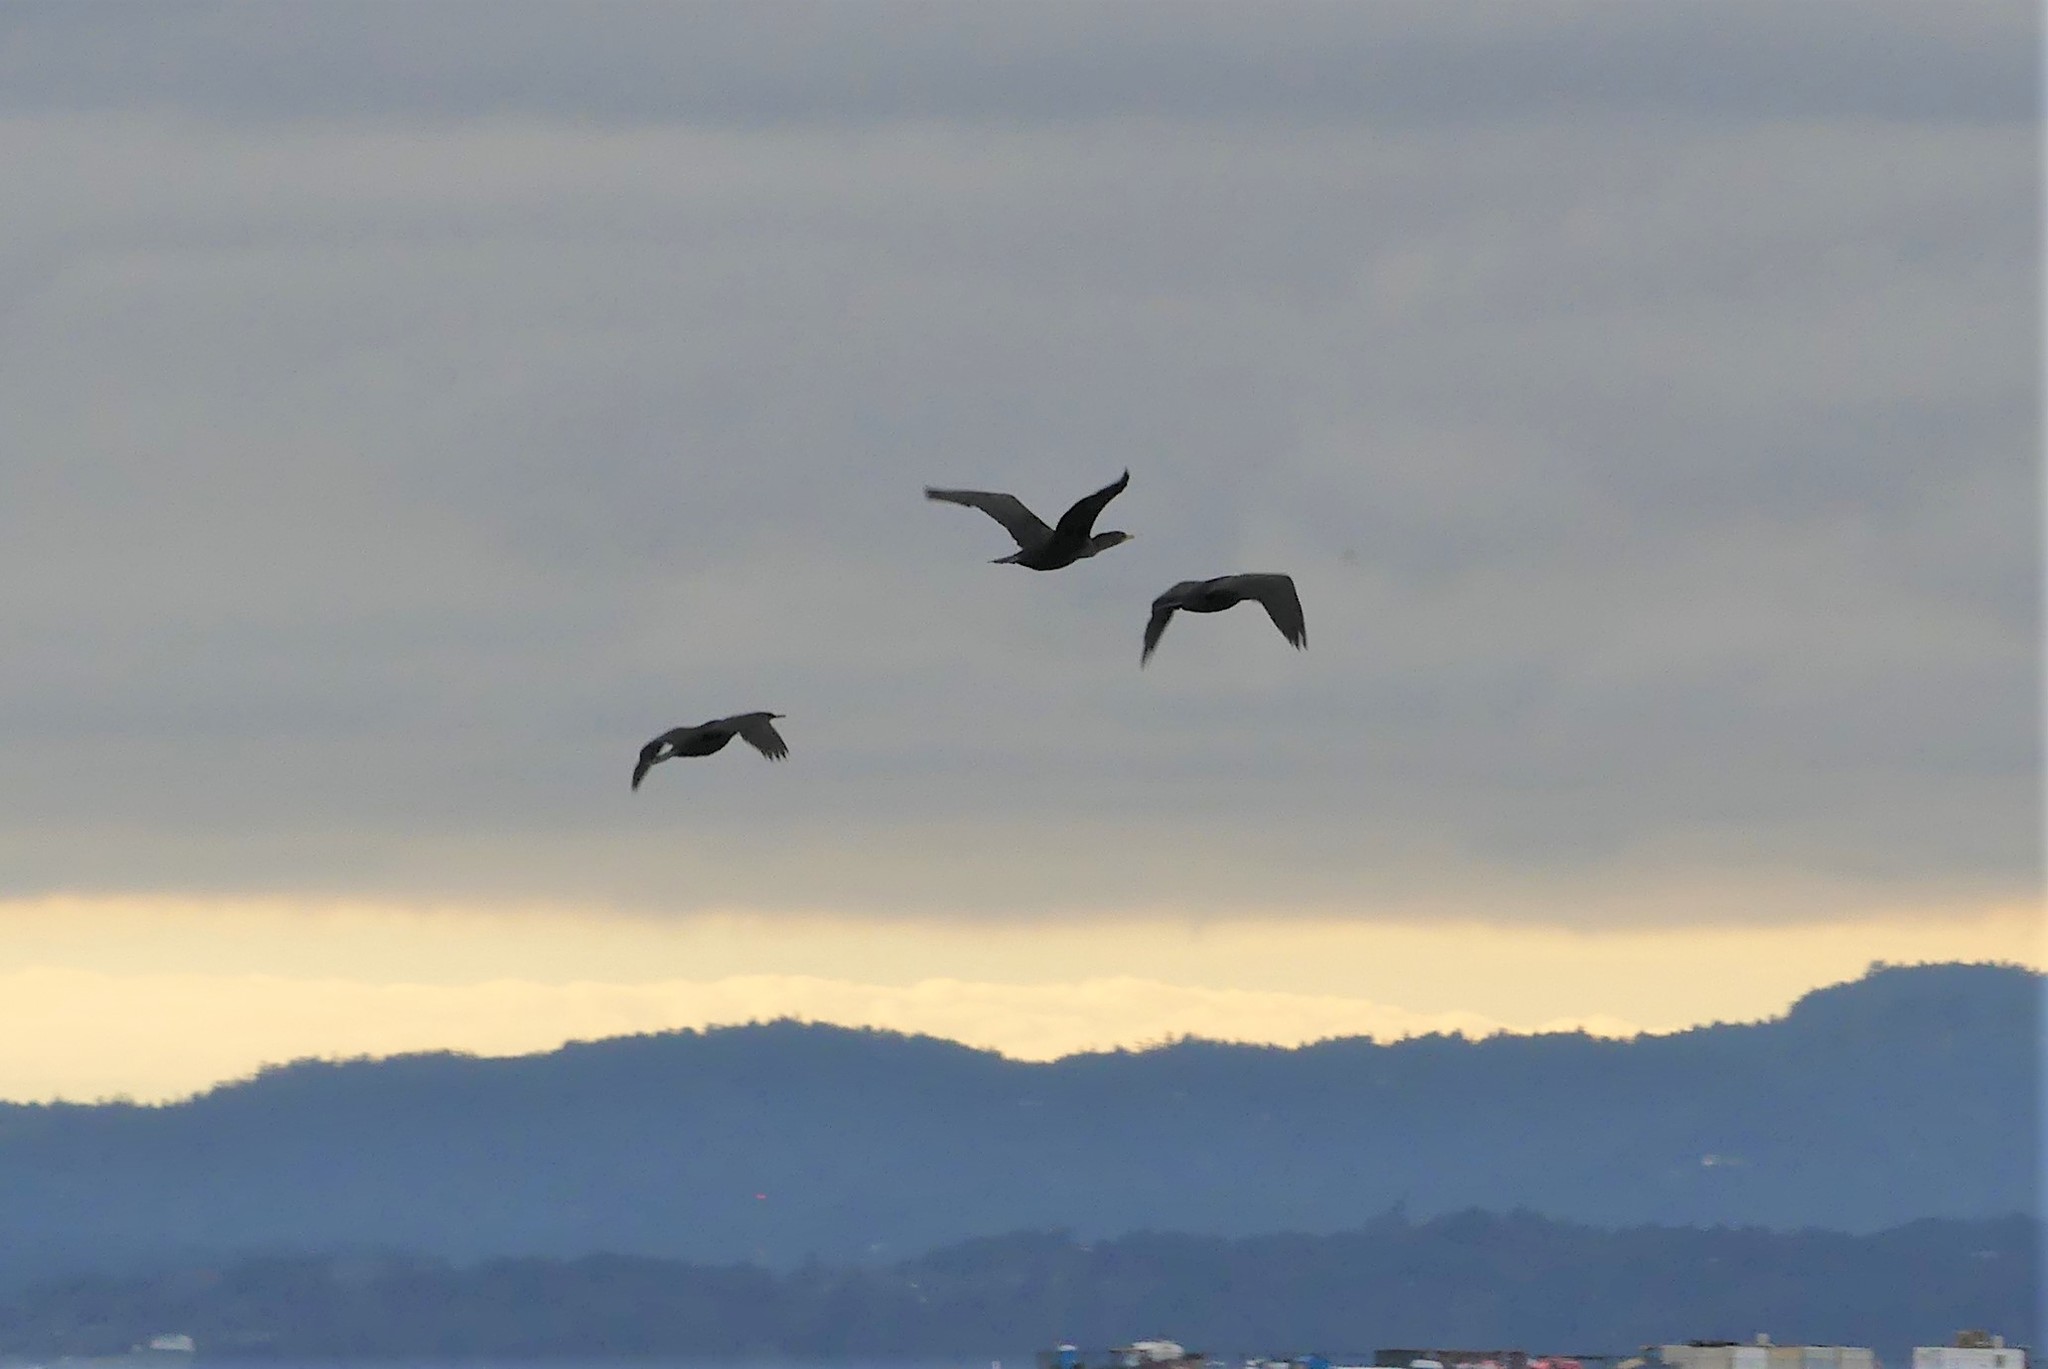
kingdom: Animalia
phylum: Chordata
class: Aves
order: Suliformes
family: Phalacrocoracidae
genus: Phalacrocorax
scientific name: Phalacrocorax pelagicus
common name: Pelagic cormorant
